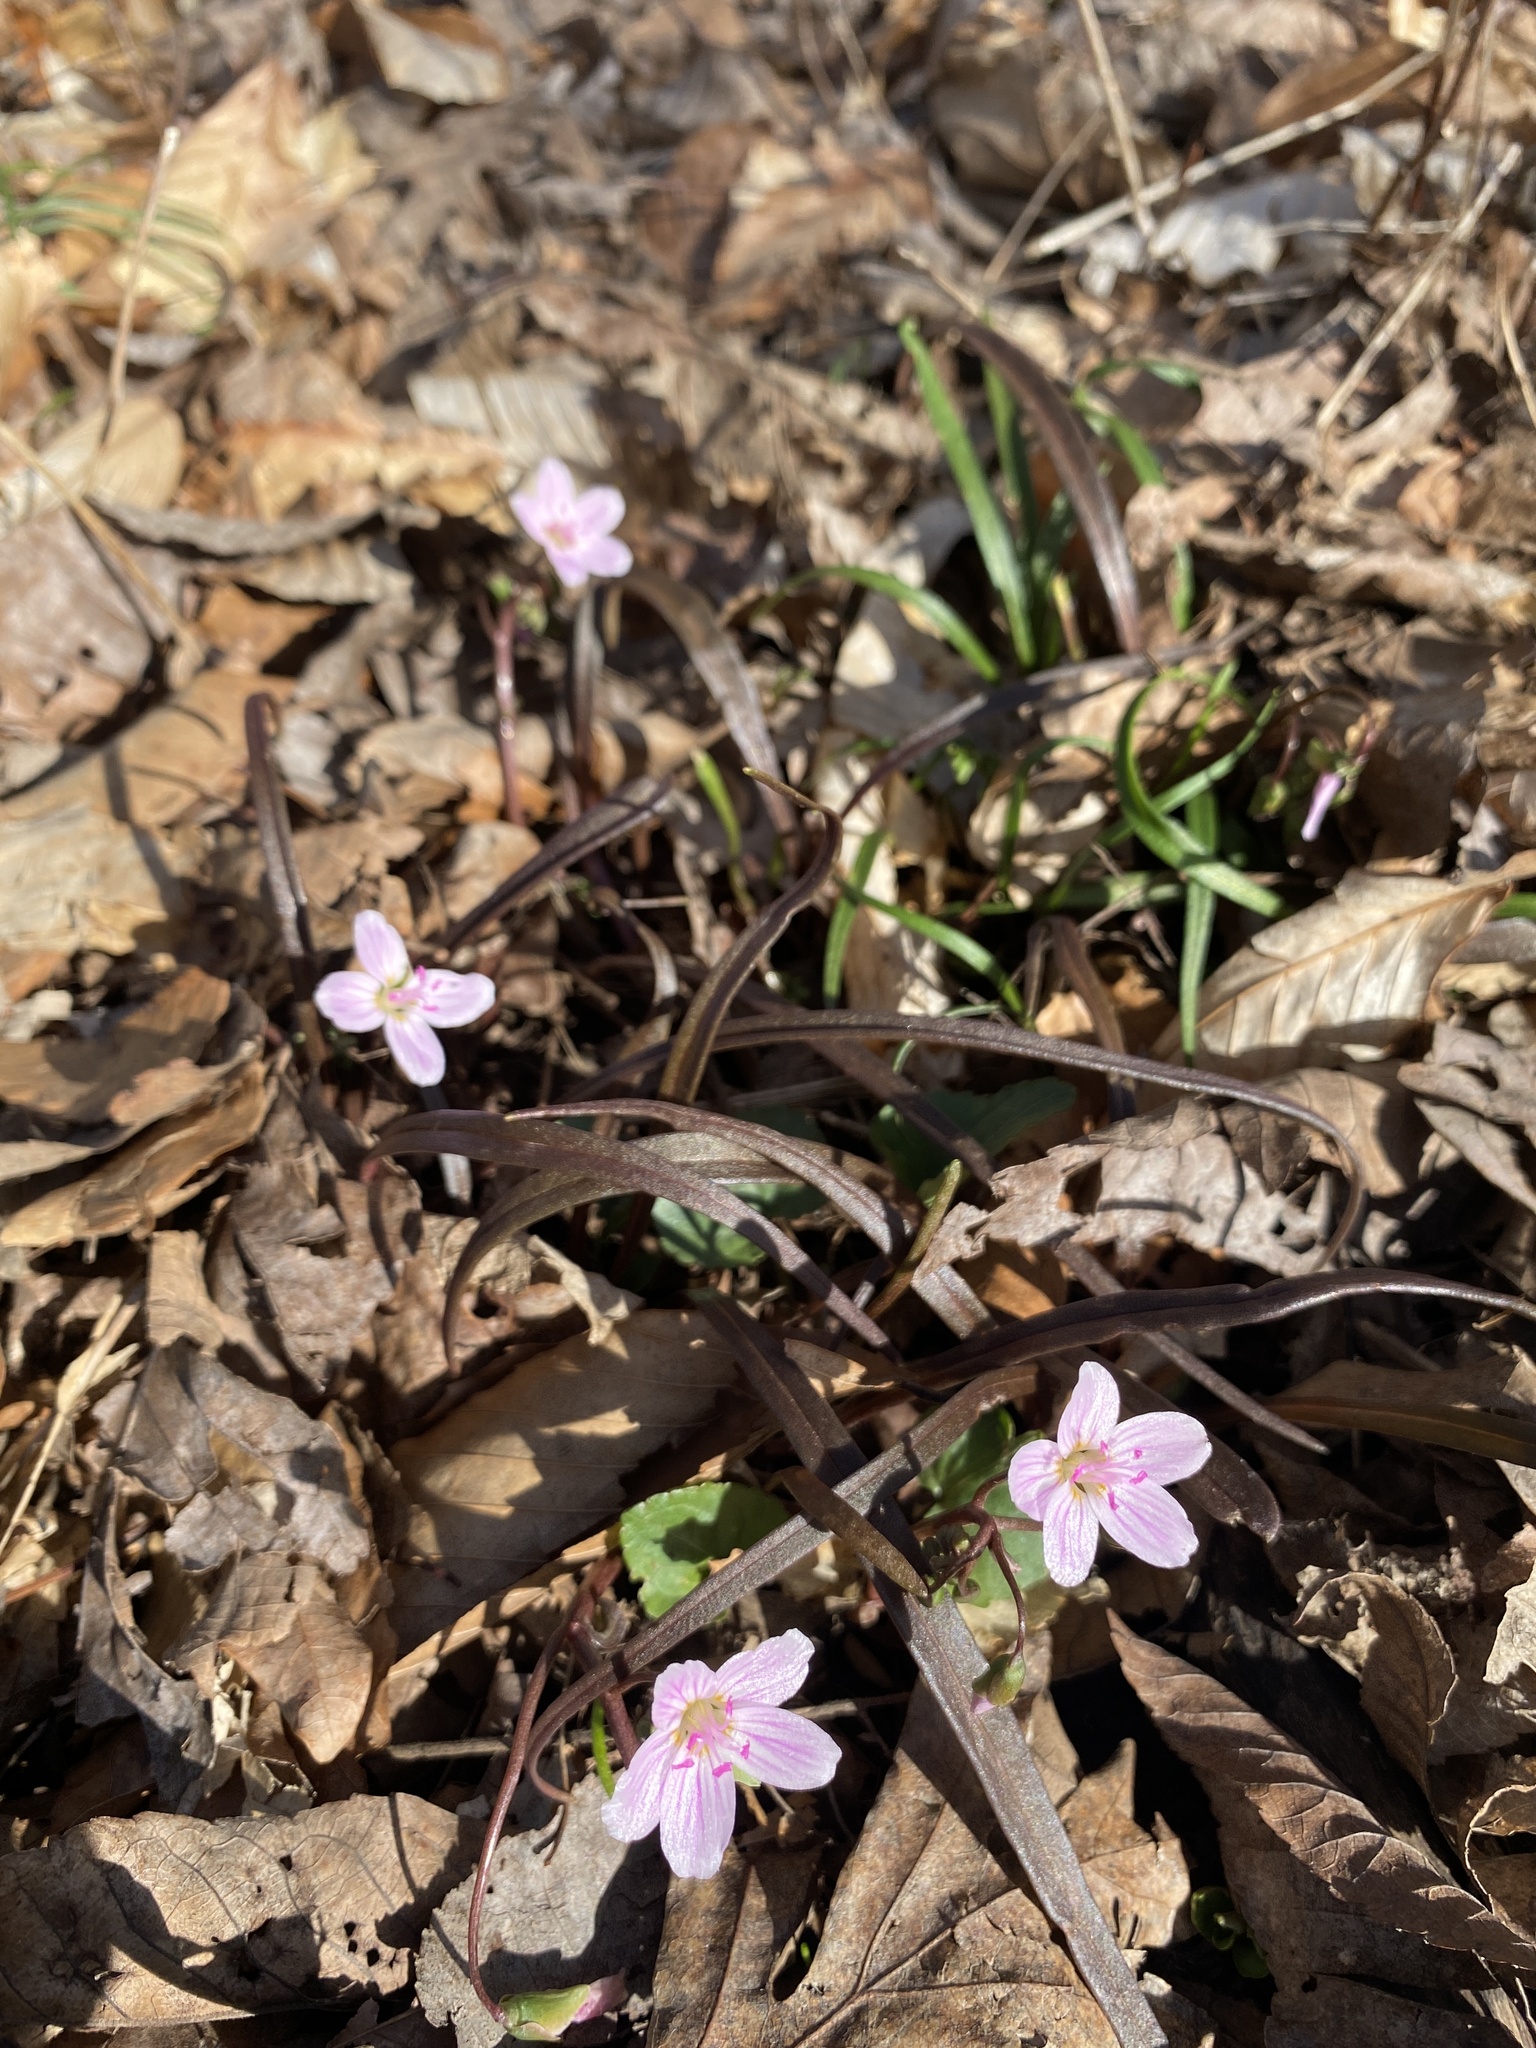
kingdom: Plantae
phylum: Tracheophyta
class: Magnoliopsida
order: Caryophyllales
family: Montiaceae
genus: Claytonia
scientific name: Claytonia virginica
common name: Virginia springbeauty
